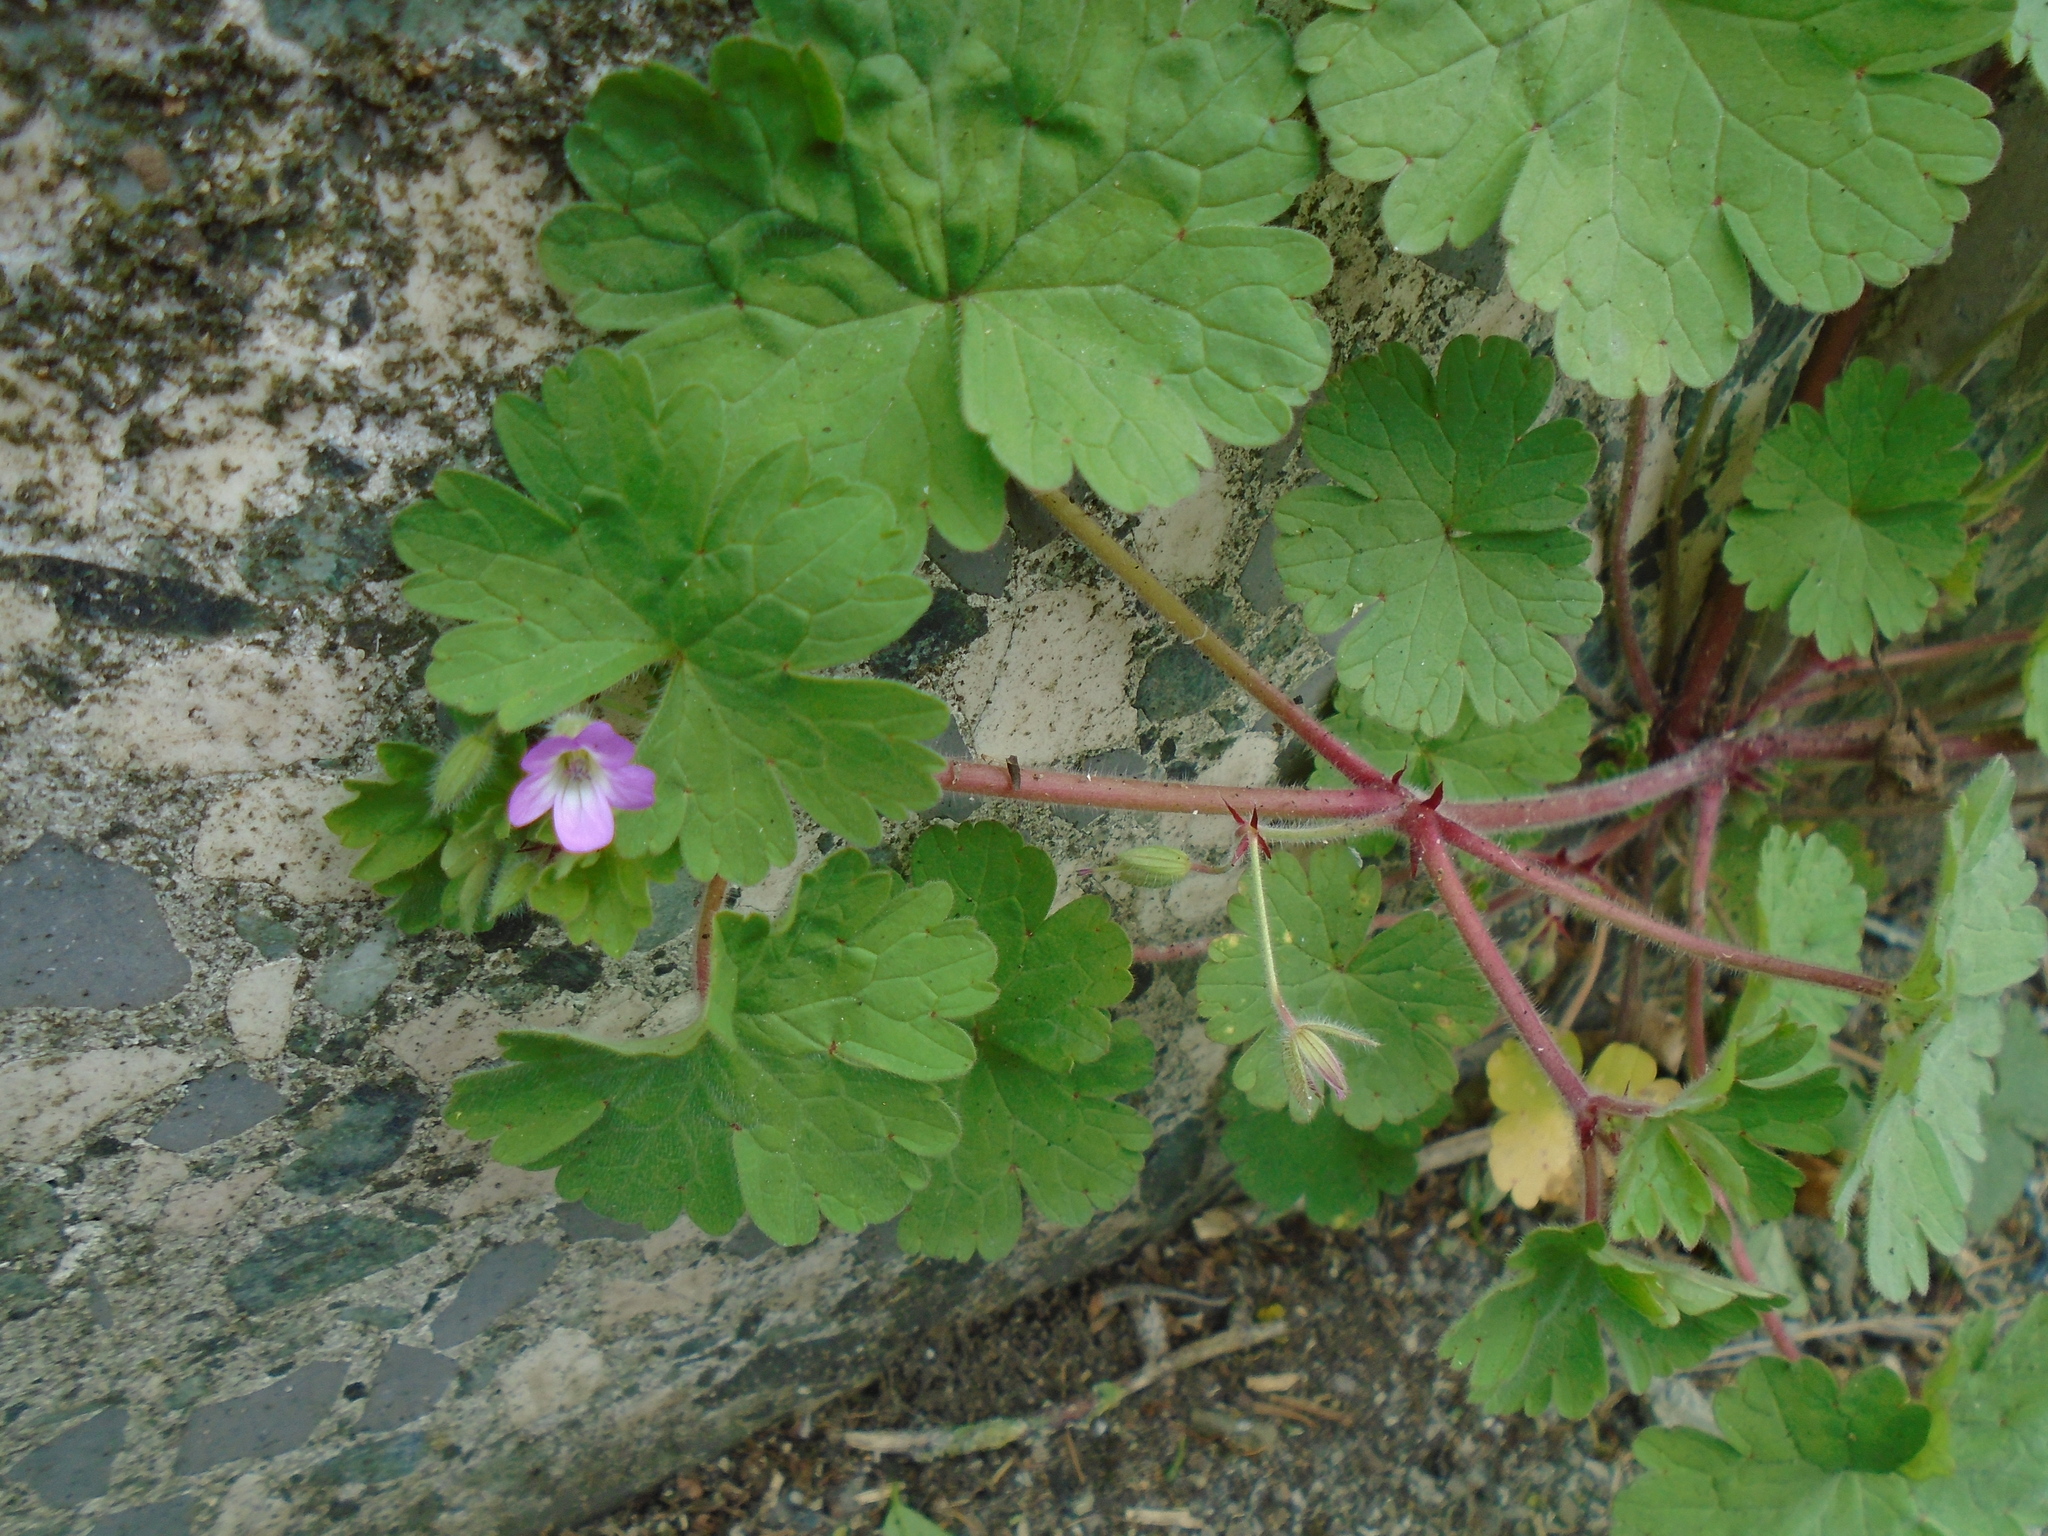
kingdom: Plantae
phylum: Tracheophyta
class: Magnoliopsida
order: Geraniales
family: Geraniaceae
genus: Geranium
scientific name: Geranium rotundifolium
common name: Round-leaved crane's-bill
